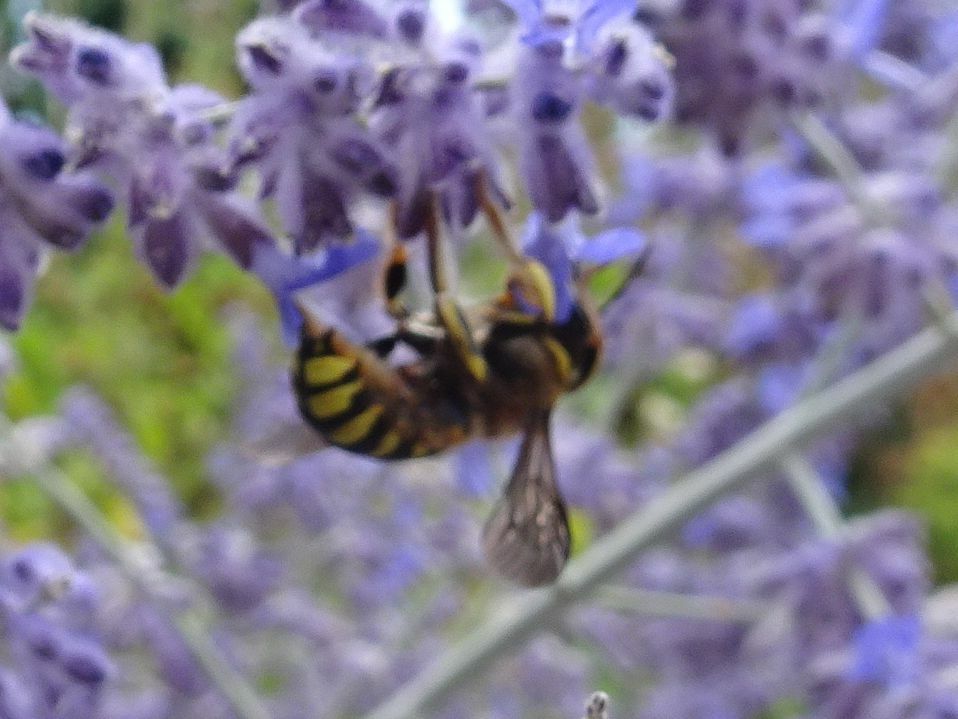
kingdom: Animalia
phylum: Arthropoda
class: Insecta
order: Hymenoptera
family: Megachilidae
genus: Anthidium
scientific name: Anthidium florentinum
